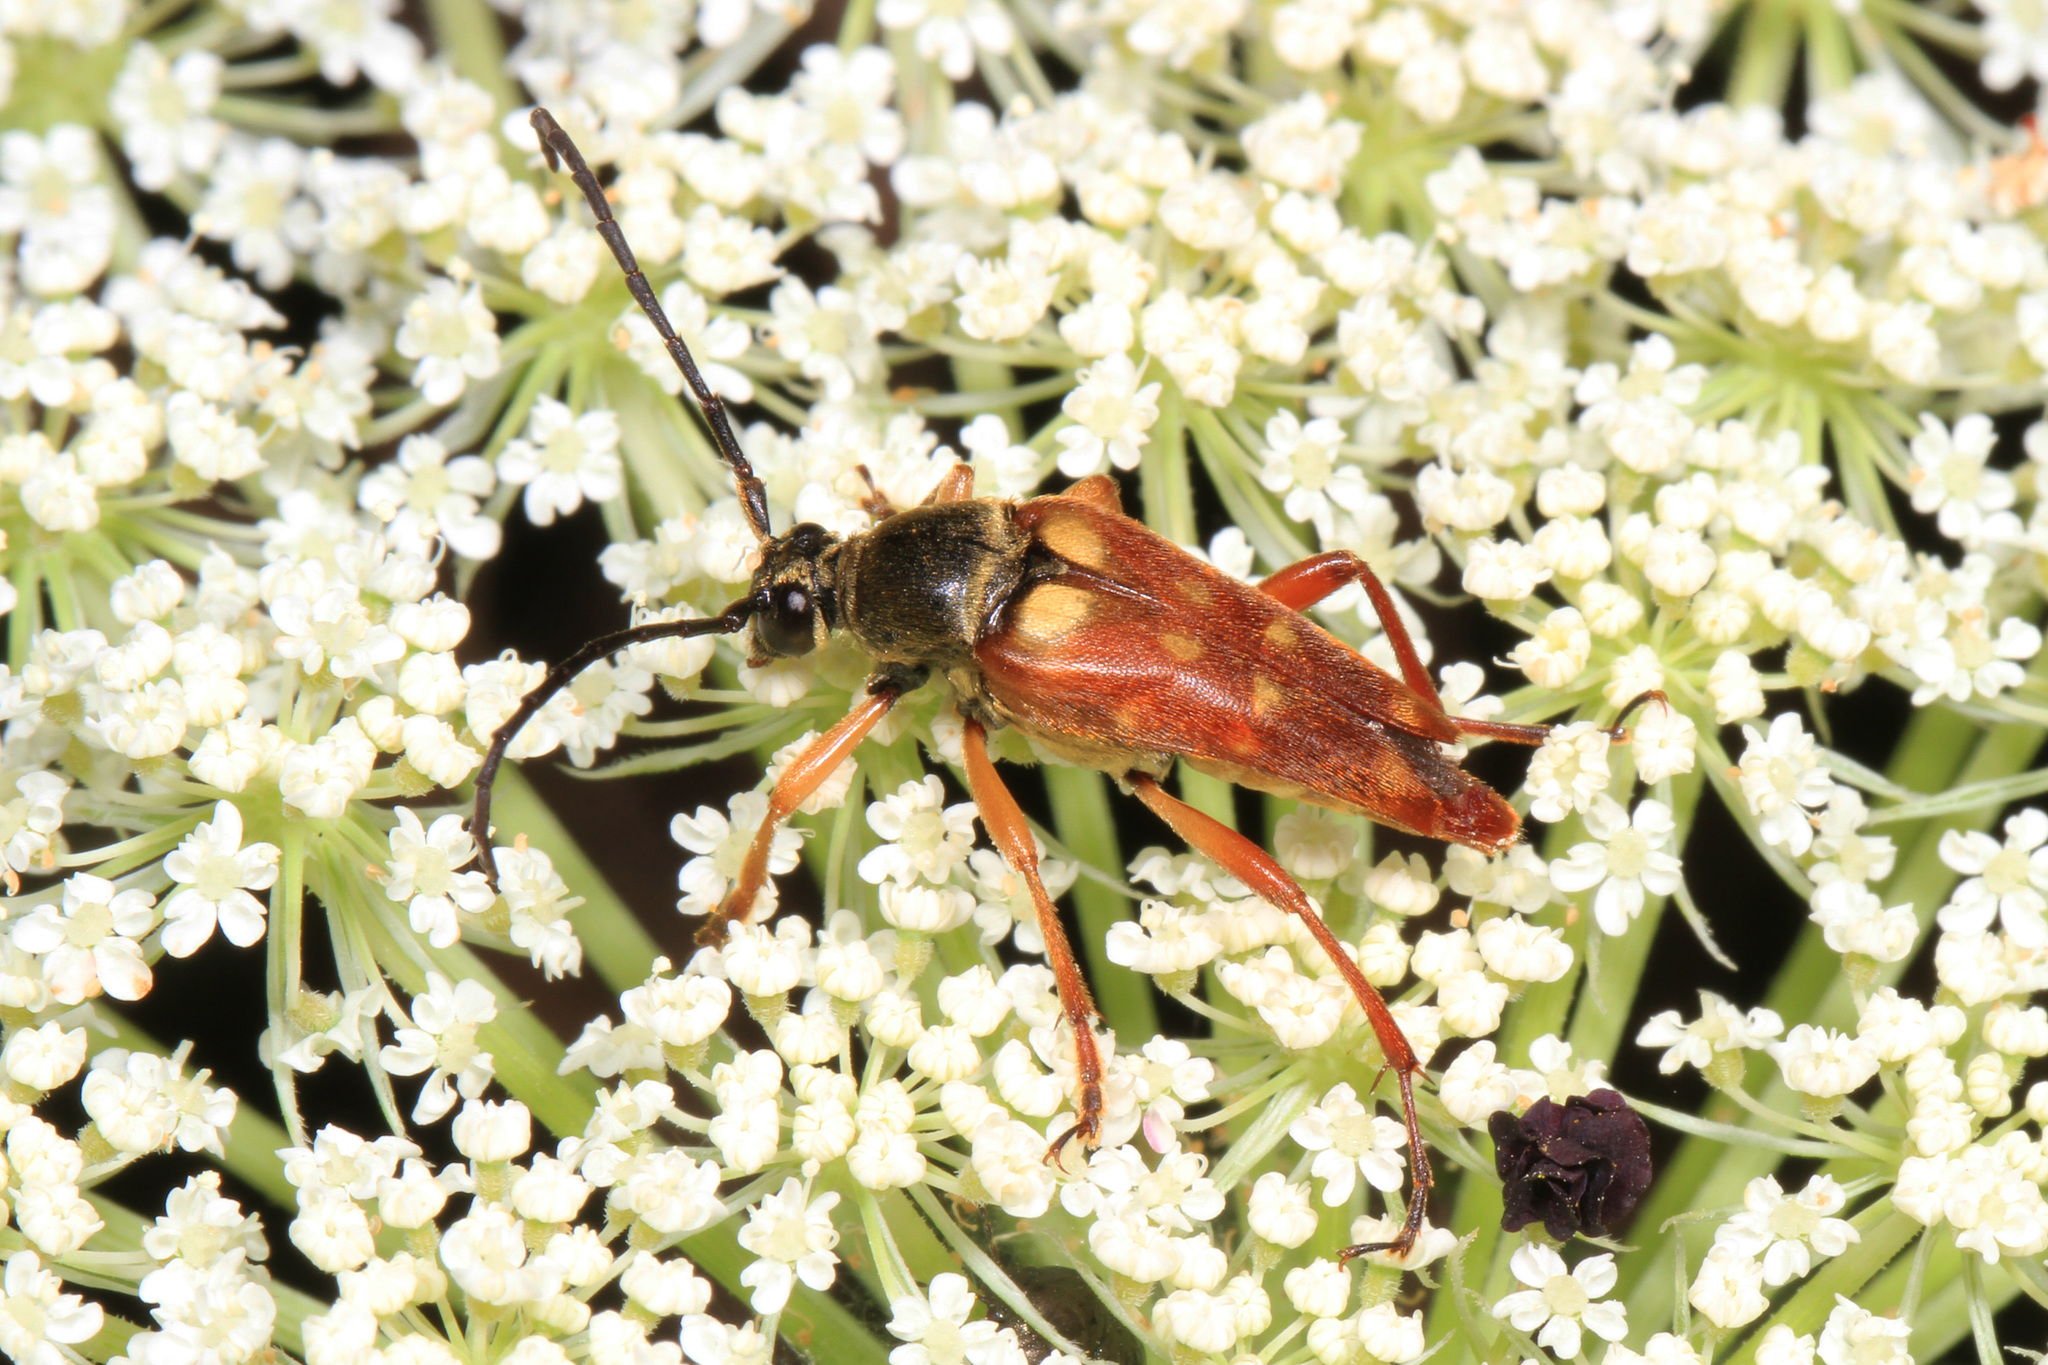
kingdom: Animalia
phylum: Arthropoda
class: Insecta
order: Coleoptera
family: Cerambycidae
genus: Typocerus
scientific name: Typocerus velutinus
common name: Banded longhorn beetle
